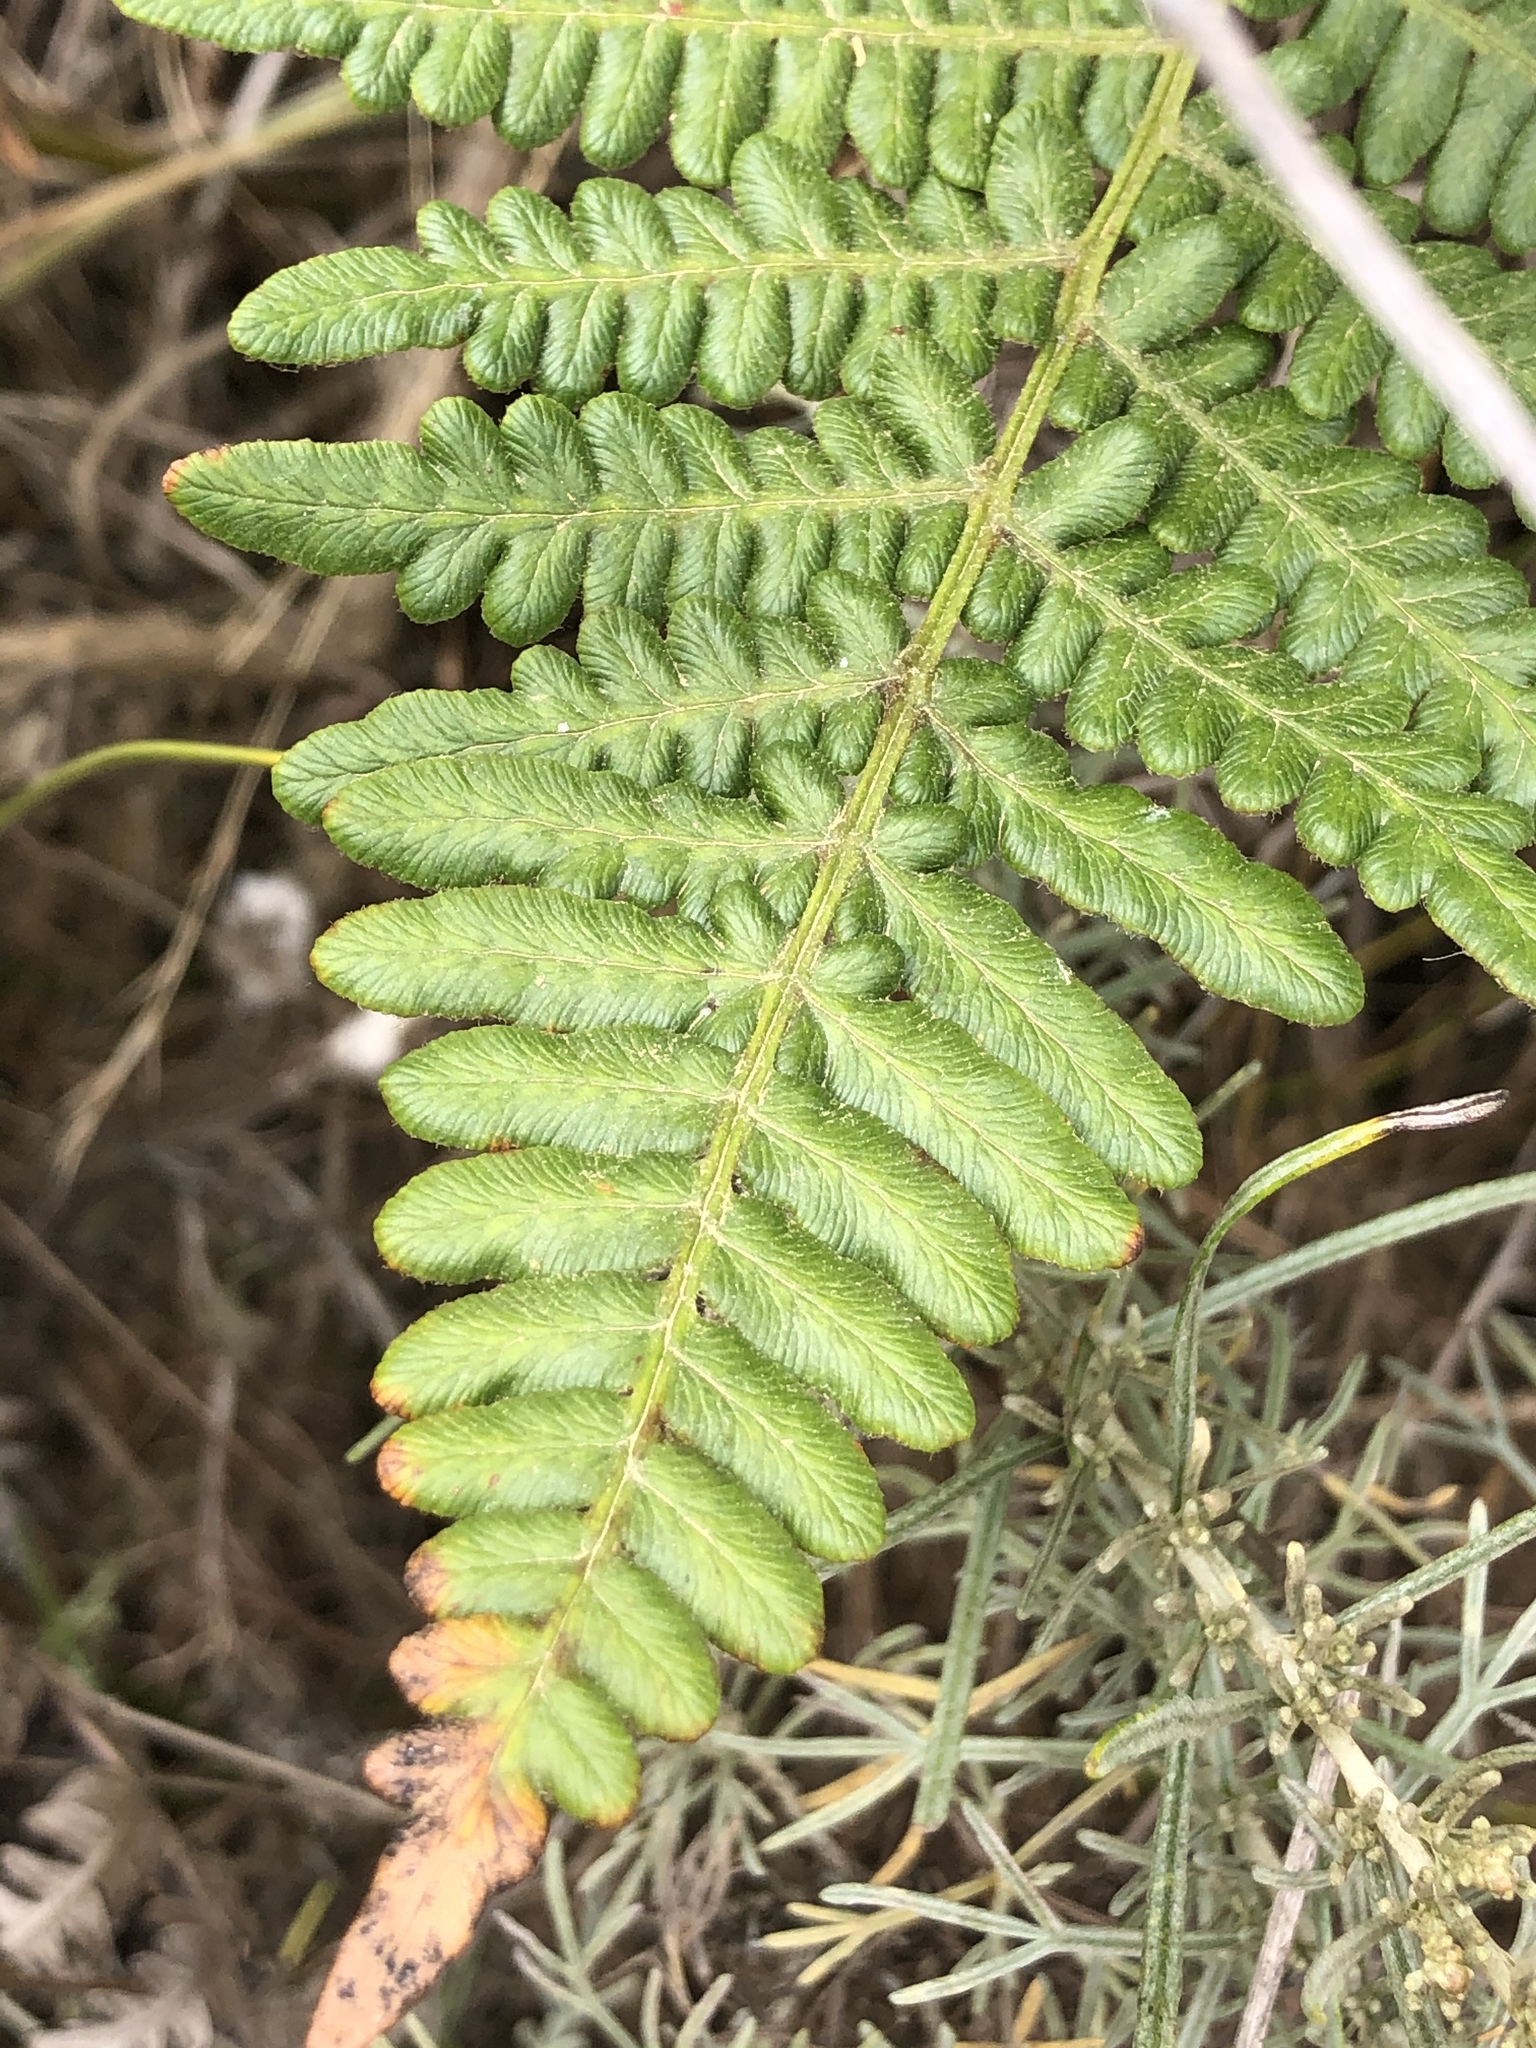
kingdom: Plantae
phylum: Tracheophyta
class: Polypodiopsida
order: Polypodiales
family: Dennstaedtiaceae
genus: Pteridium
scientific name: Pteridium aquilinum
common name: Bracken
